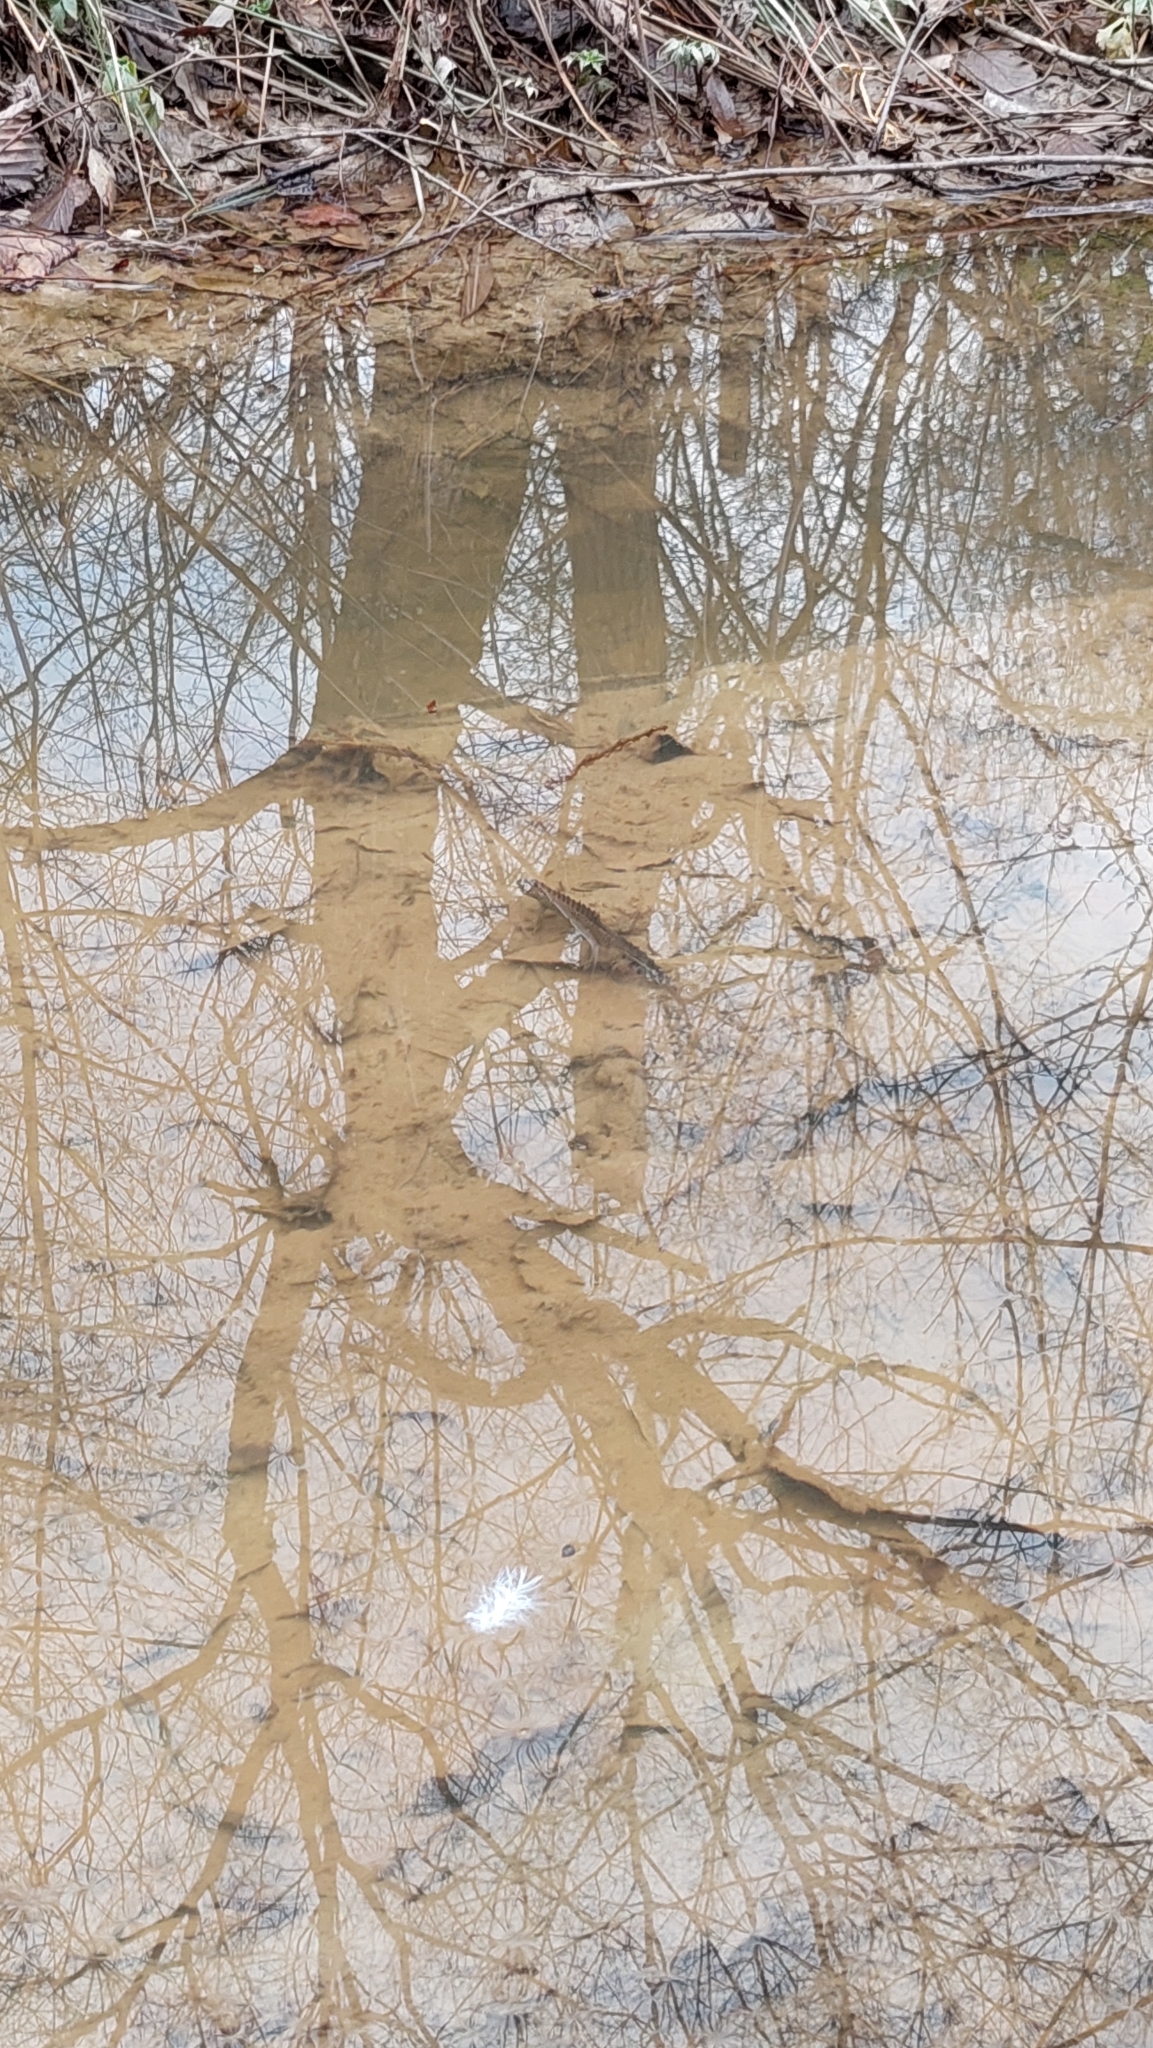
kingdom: Animalia
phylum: Chordata
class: Amphibia
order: Caudata
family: Salamandridae
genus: Ommatotriton
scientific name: Ommatotriton ophryticus
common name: Northern banded newt
